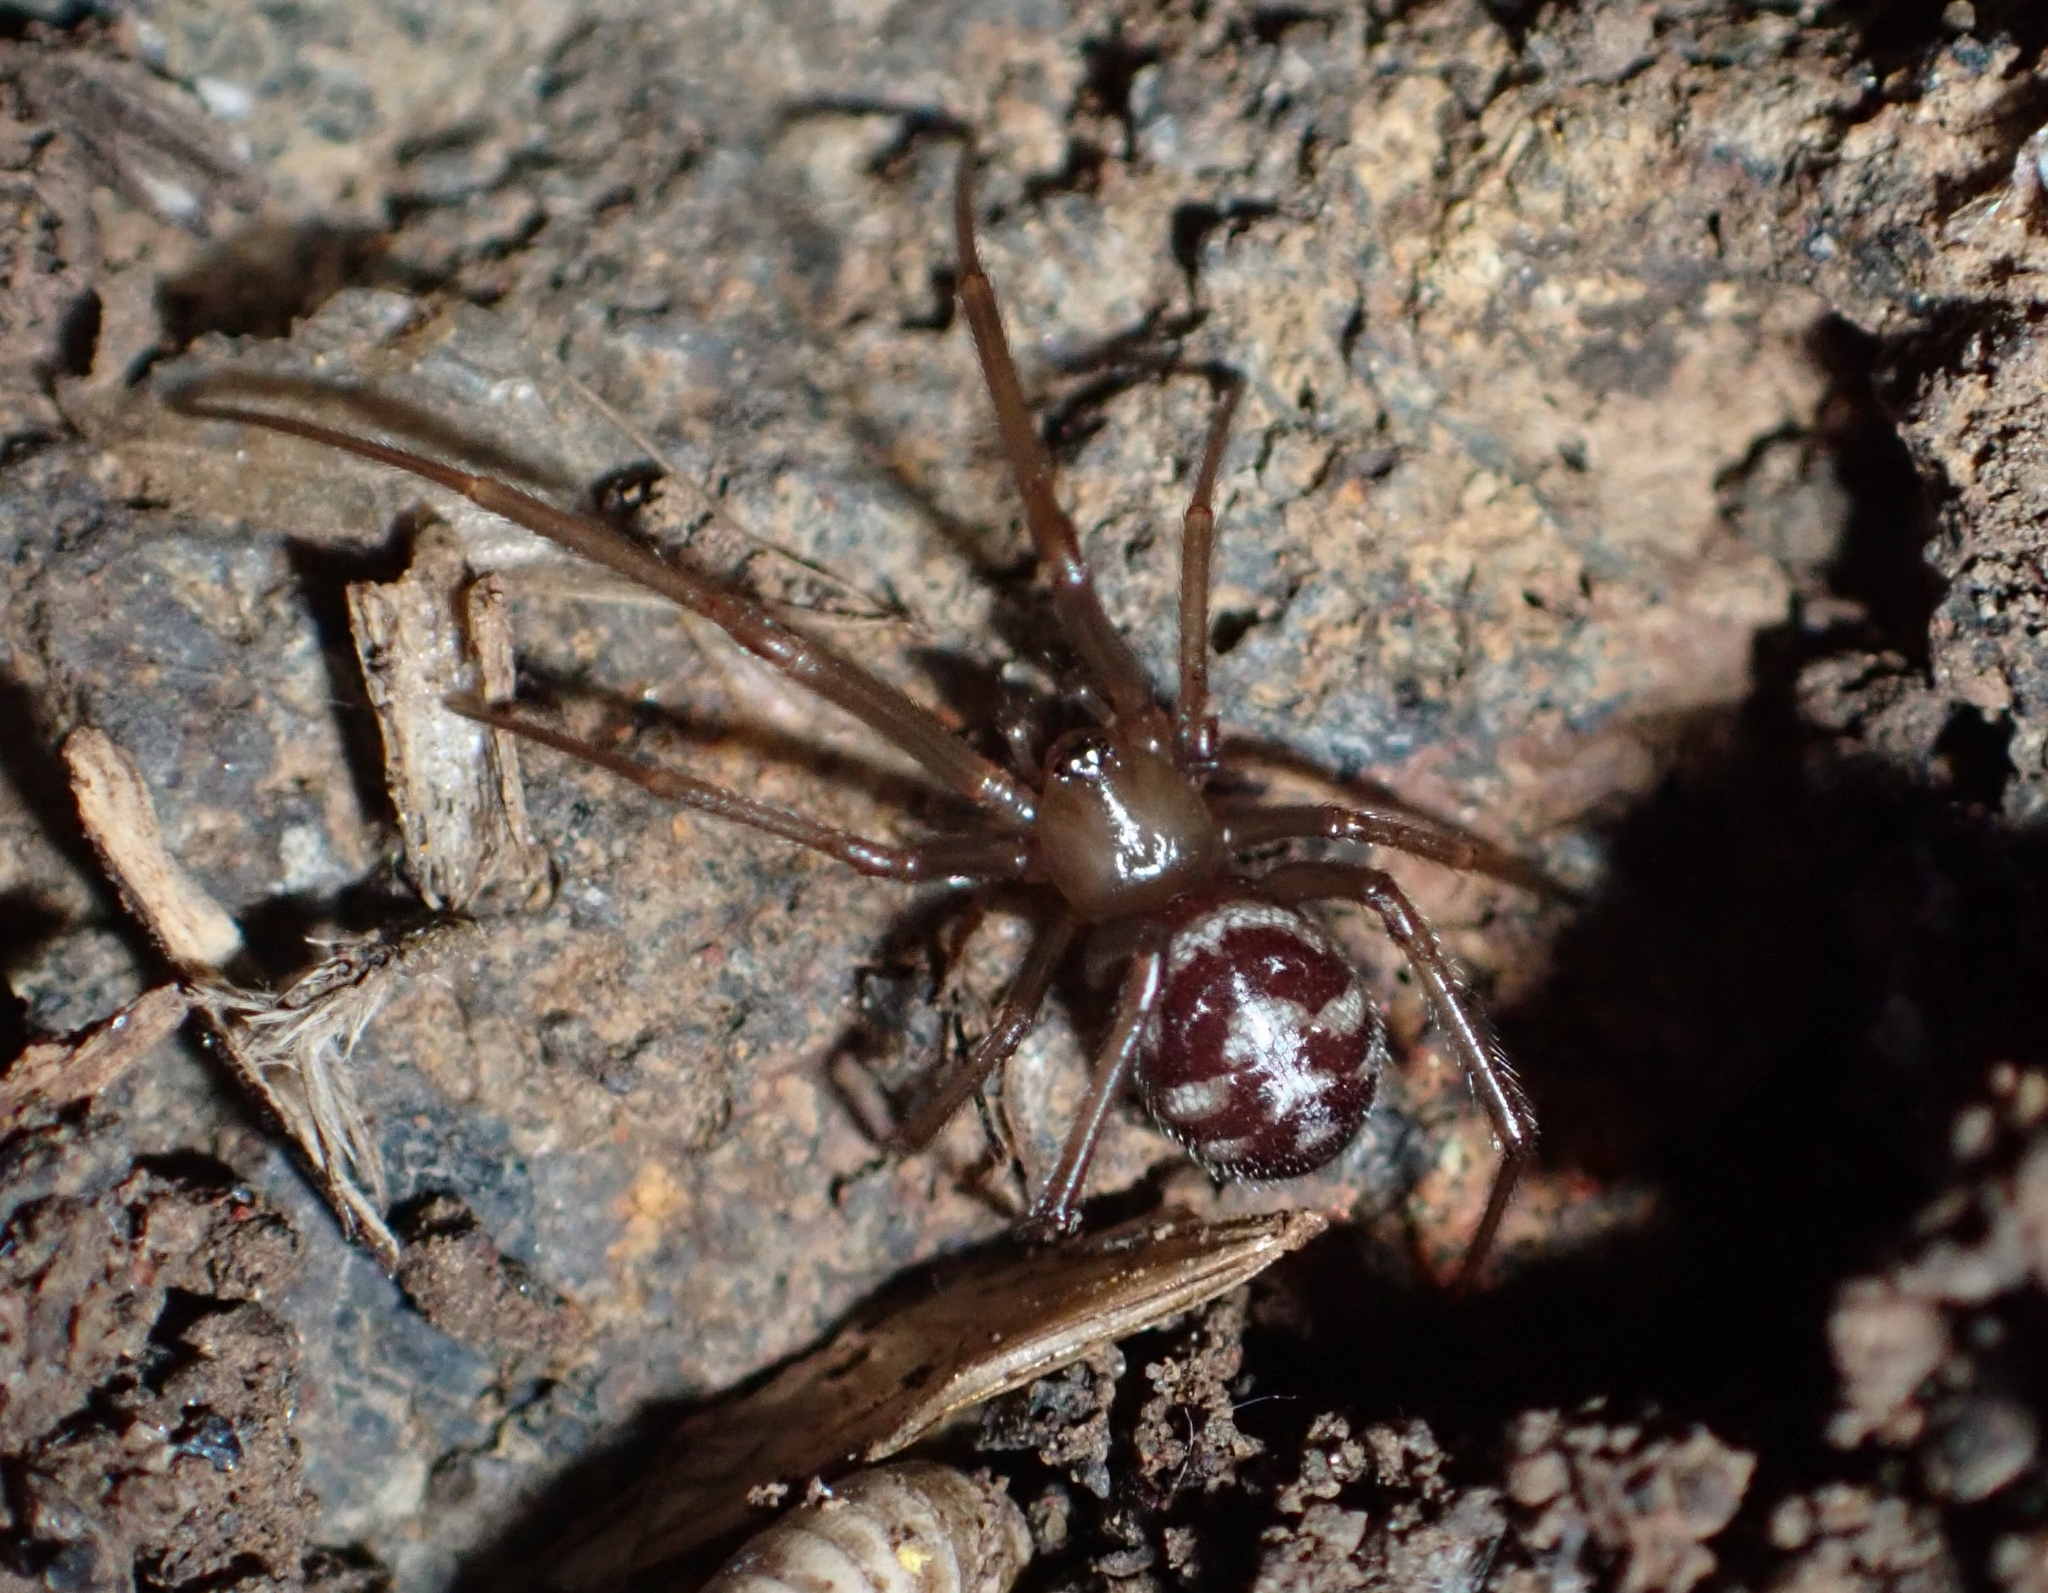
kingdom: Animalia
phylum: Arthropoda
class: Arachnida
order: Araneae
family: Theridiidae
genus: Steatoda
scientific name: Steatoda grossa
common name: False black widow
